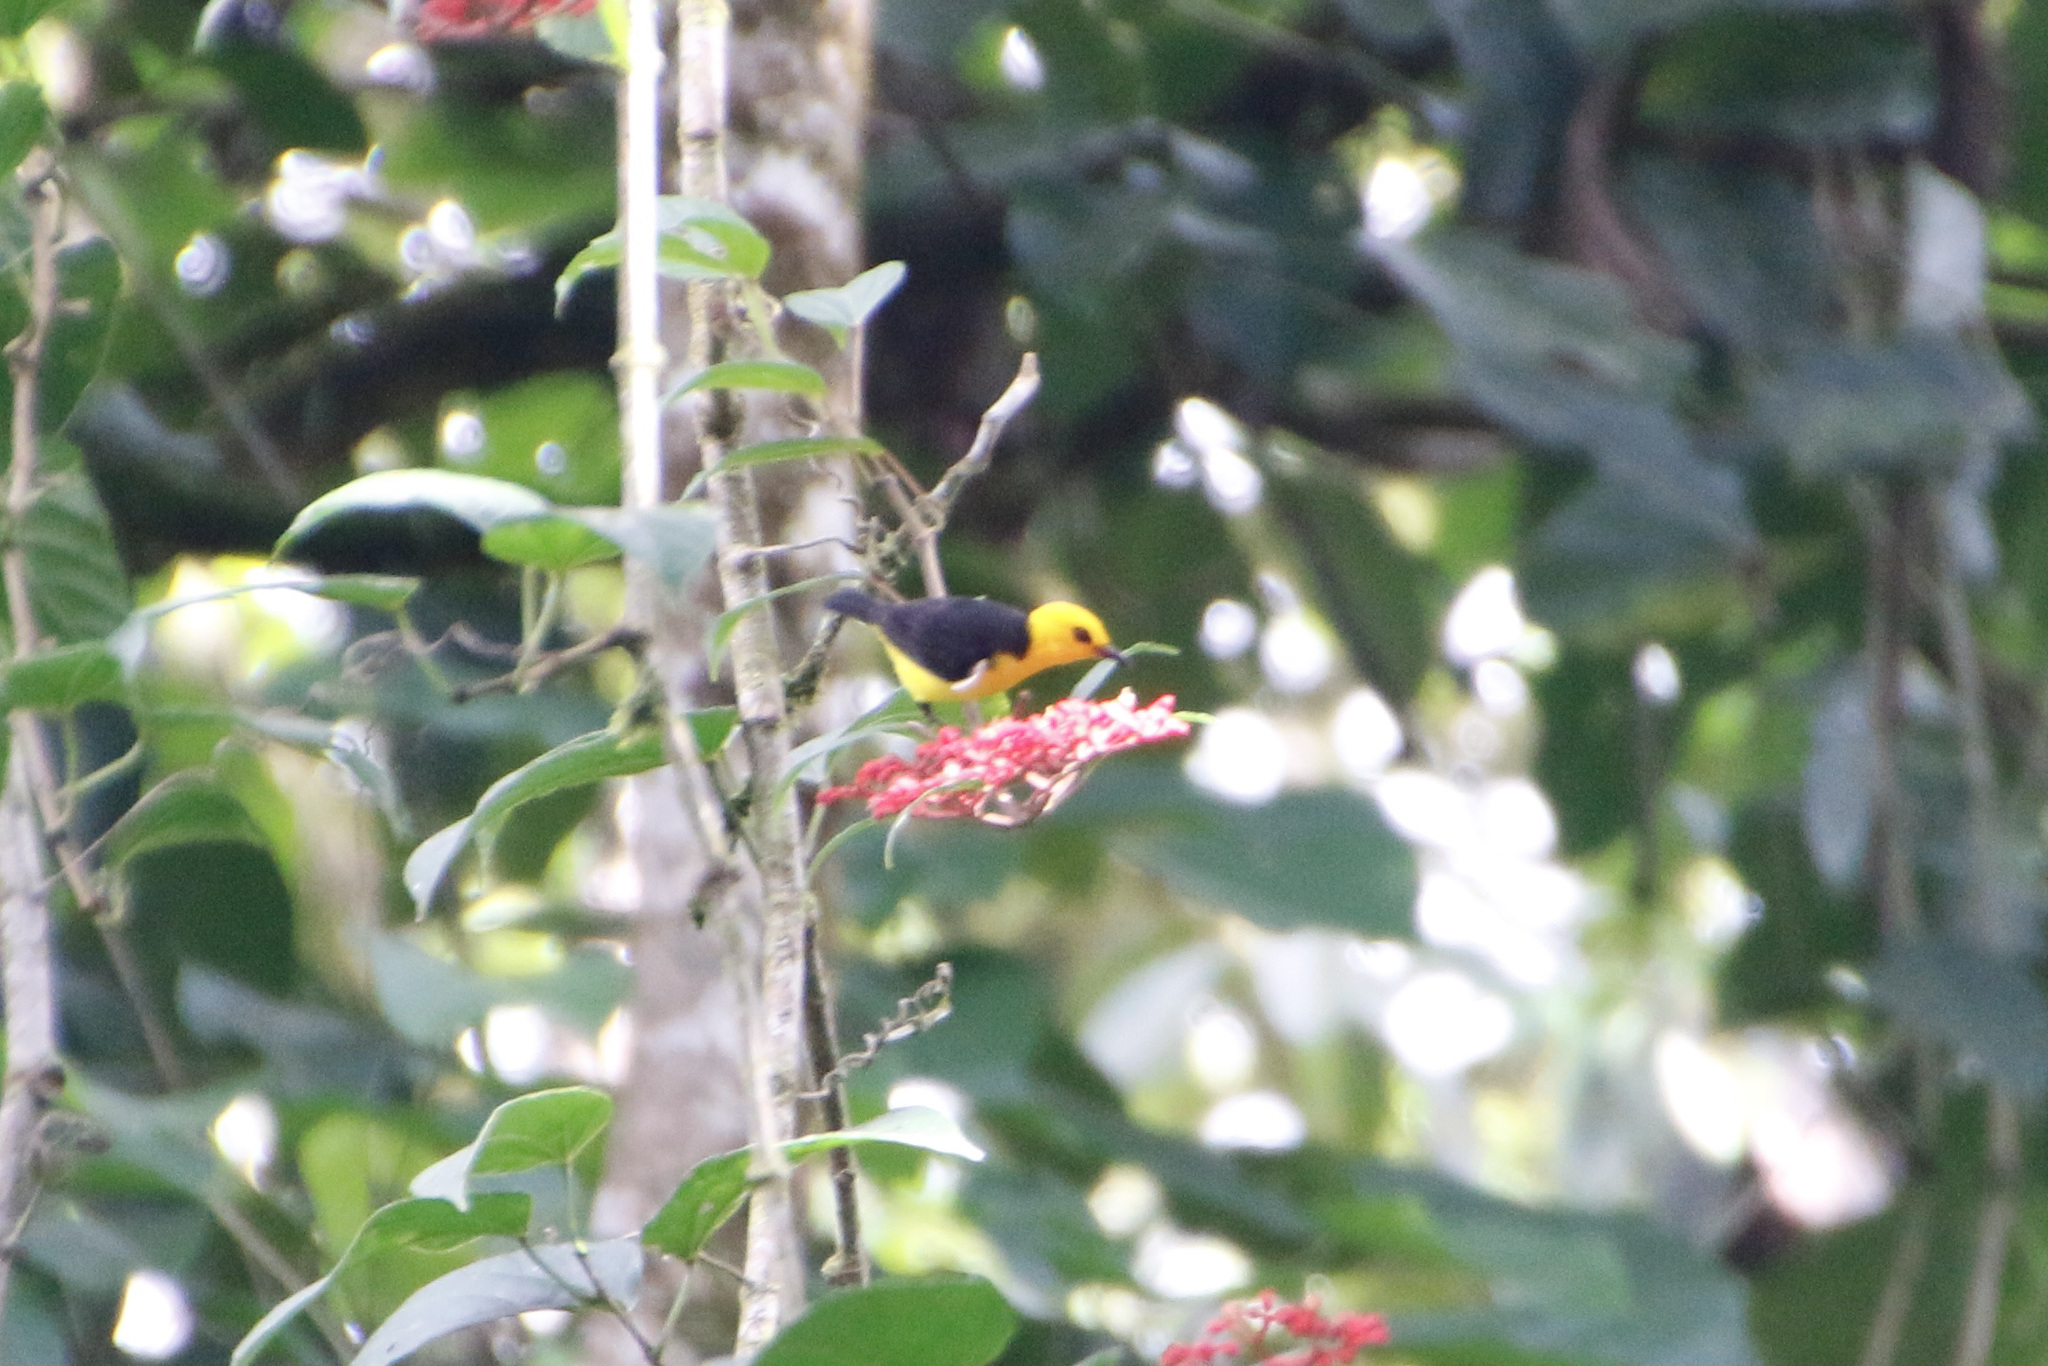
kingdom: Animalia
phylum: Chordata
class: Aves
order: Passeriformes
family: Thraupidae
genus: Chrysothlypis
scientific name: Chrysothlypis chrysomelas
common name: Black-and-yellow tanager
